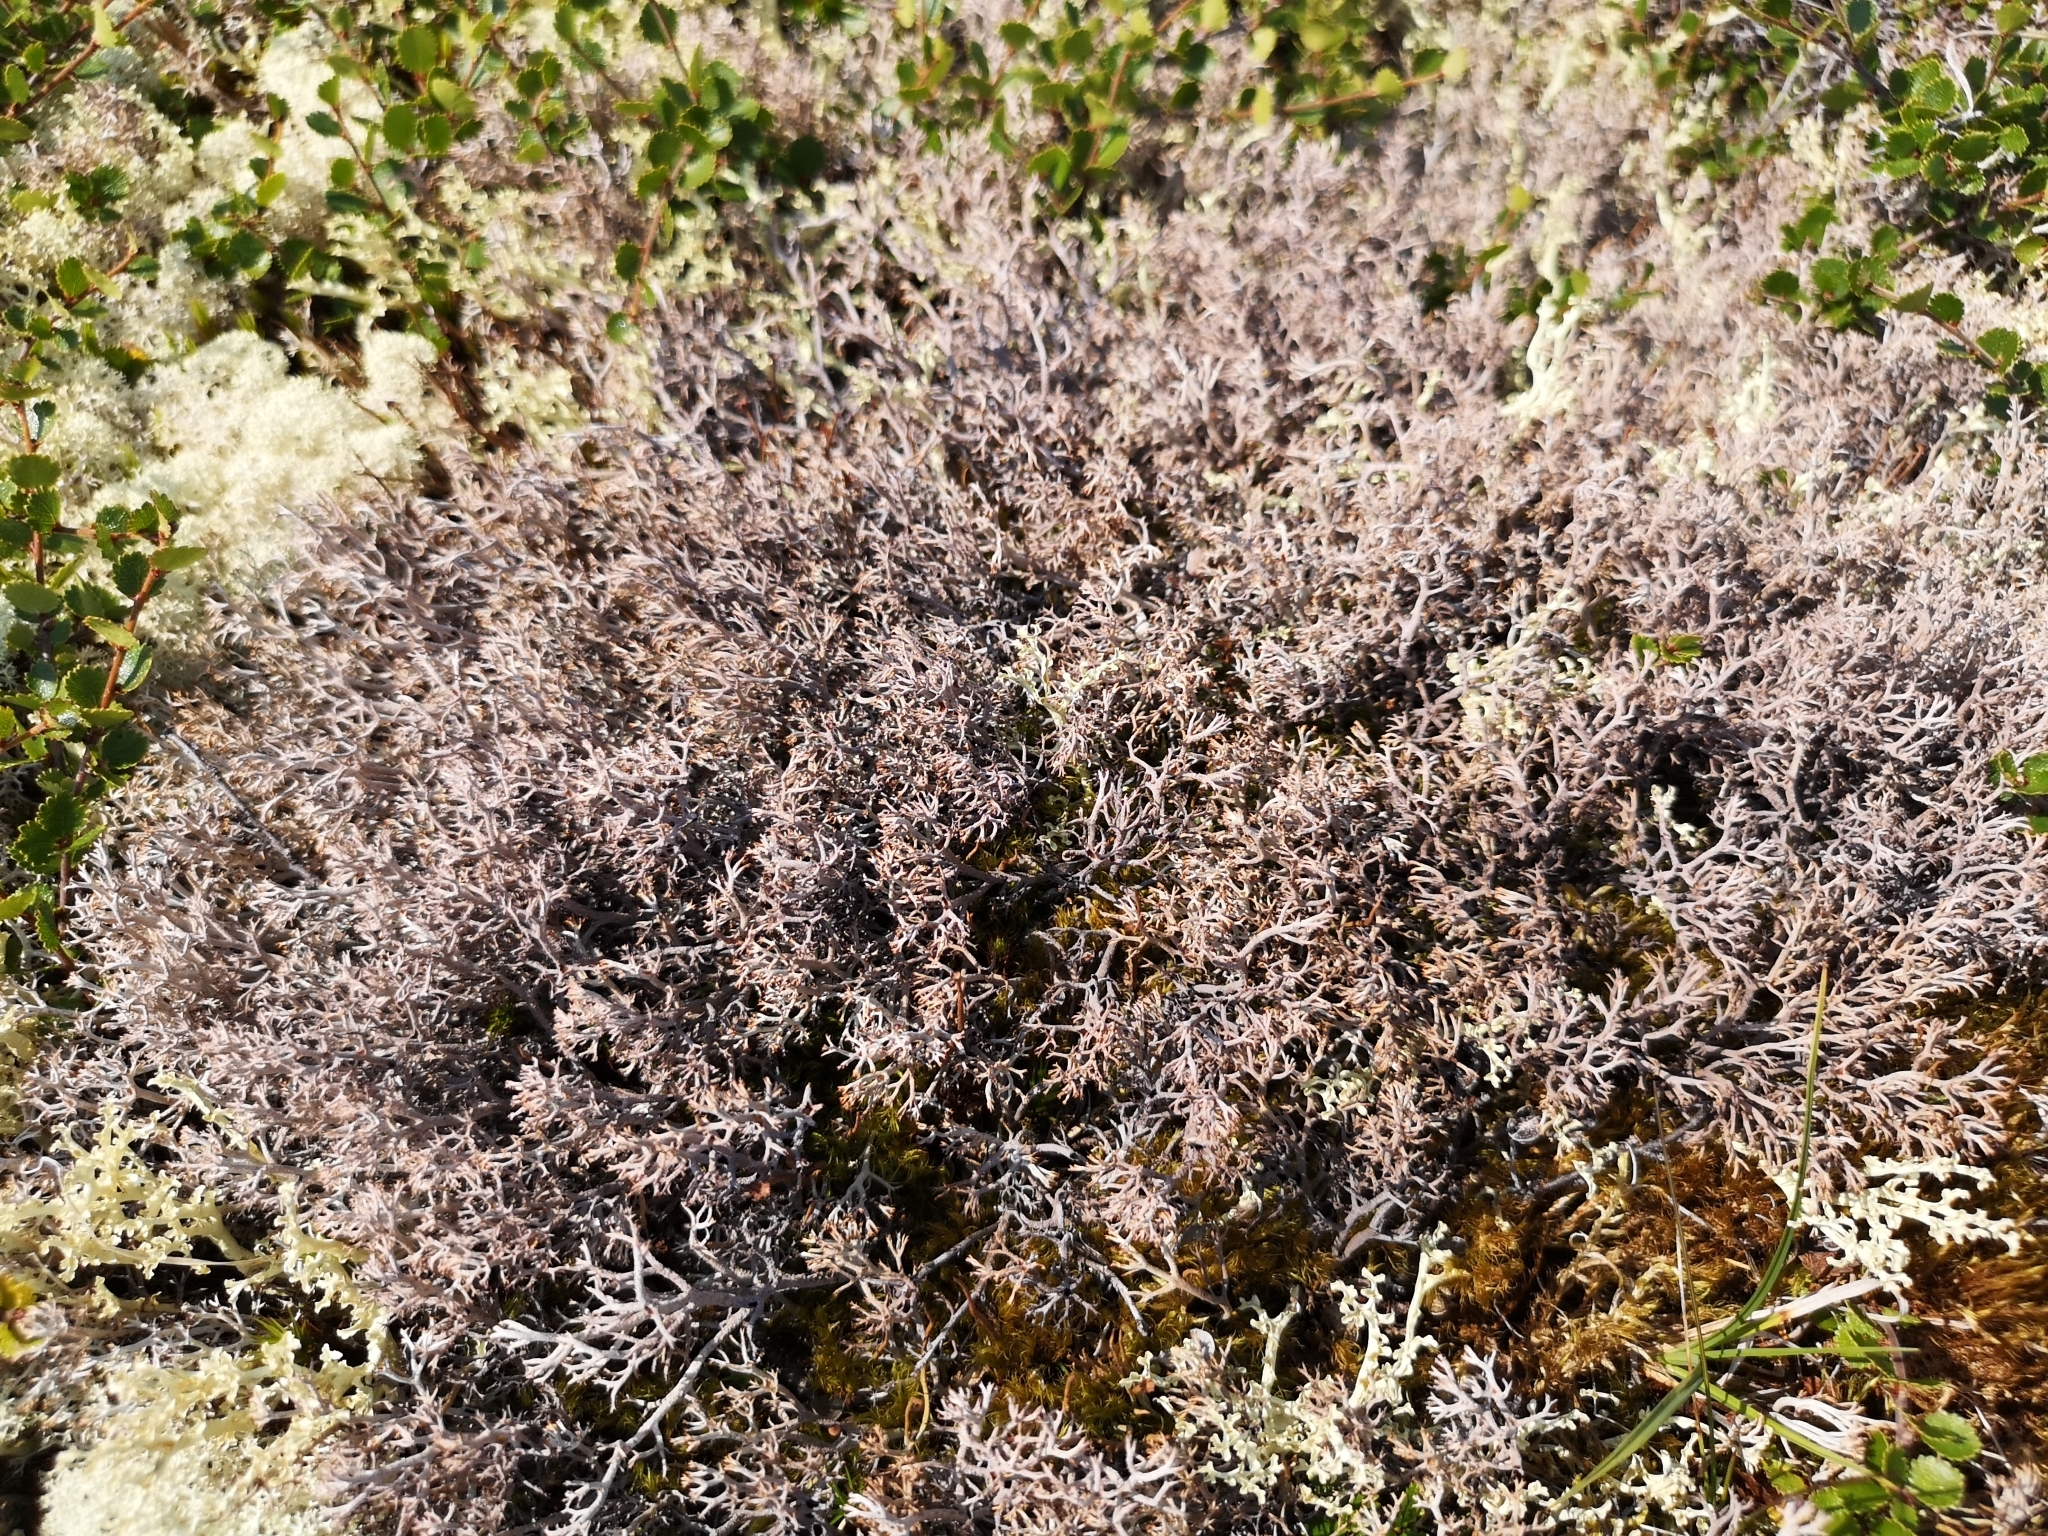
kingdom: Fungi
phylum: Ascomycota
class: Lecanoromycetes
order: Lecanorales
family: Cladoniaceae
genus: Cladonia
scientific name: Cladonia rangiferina
